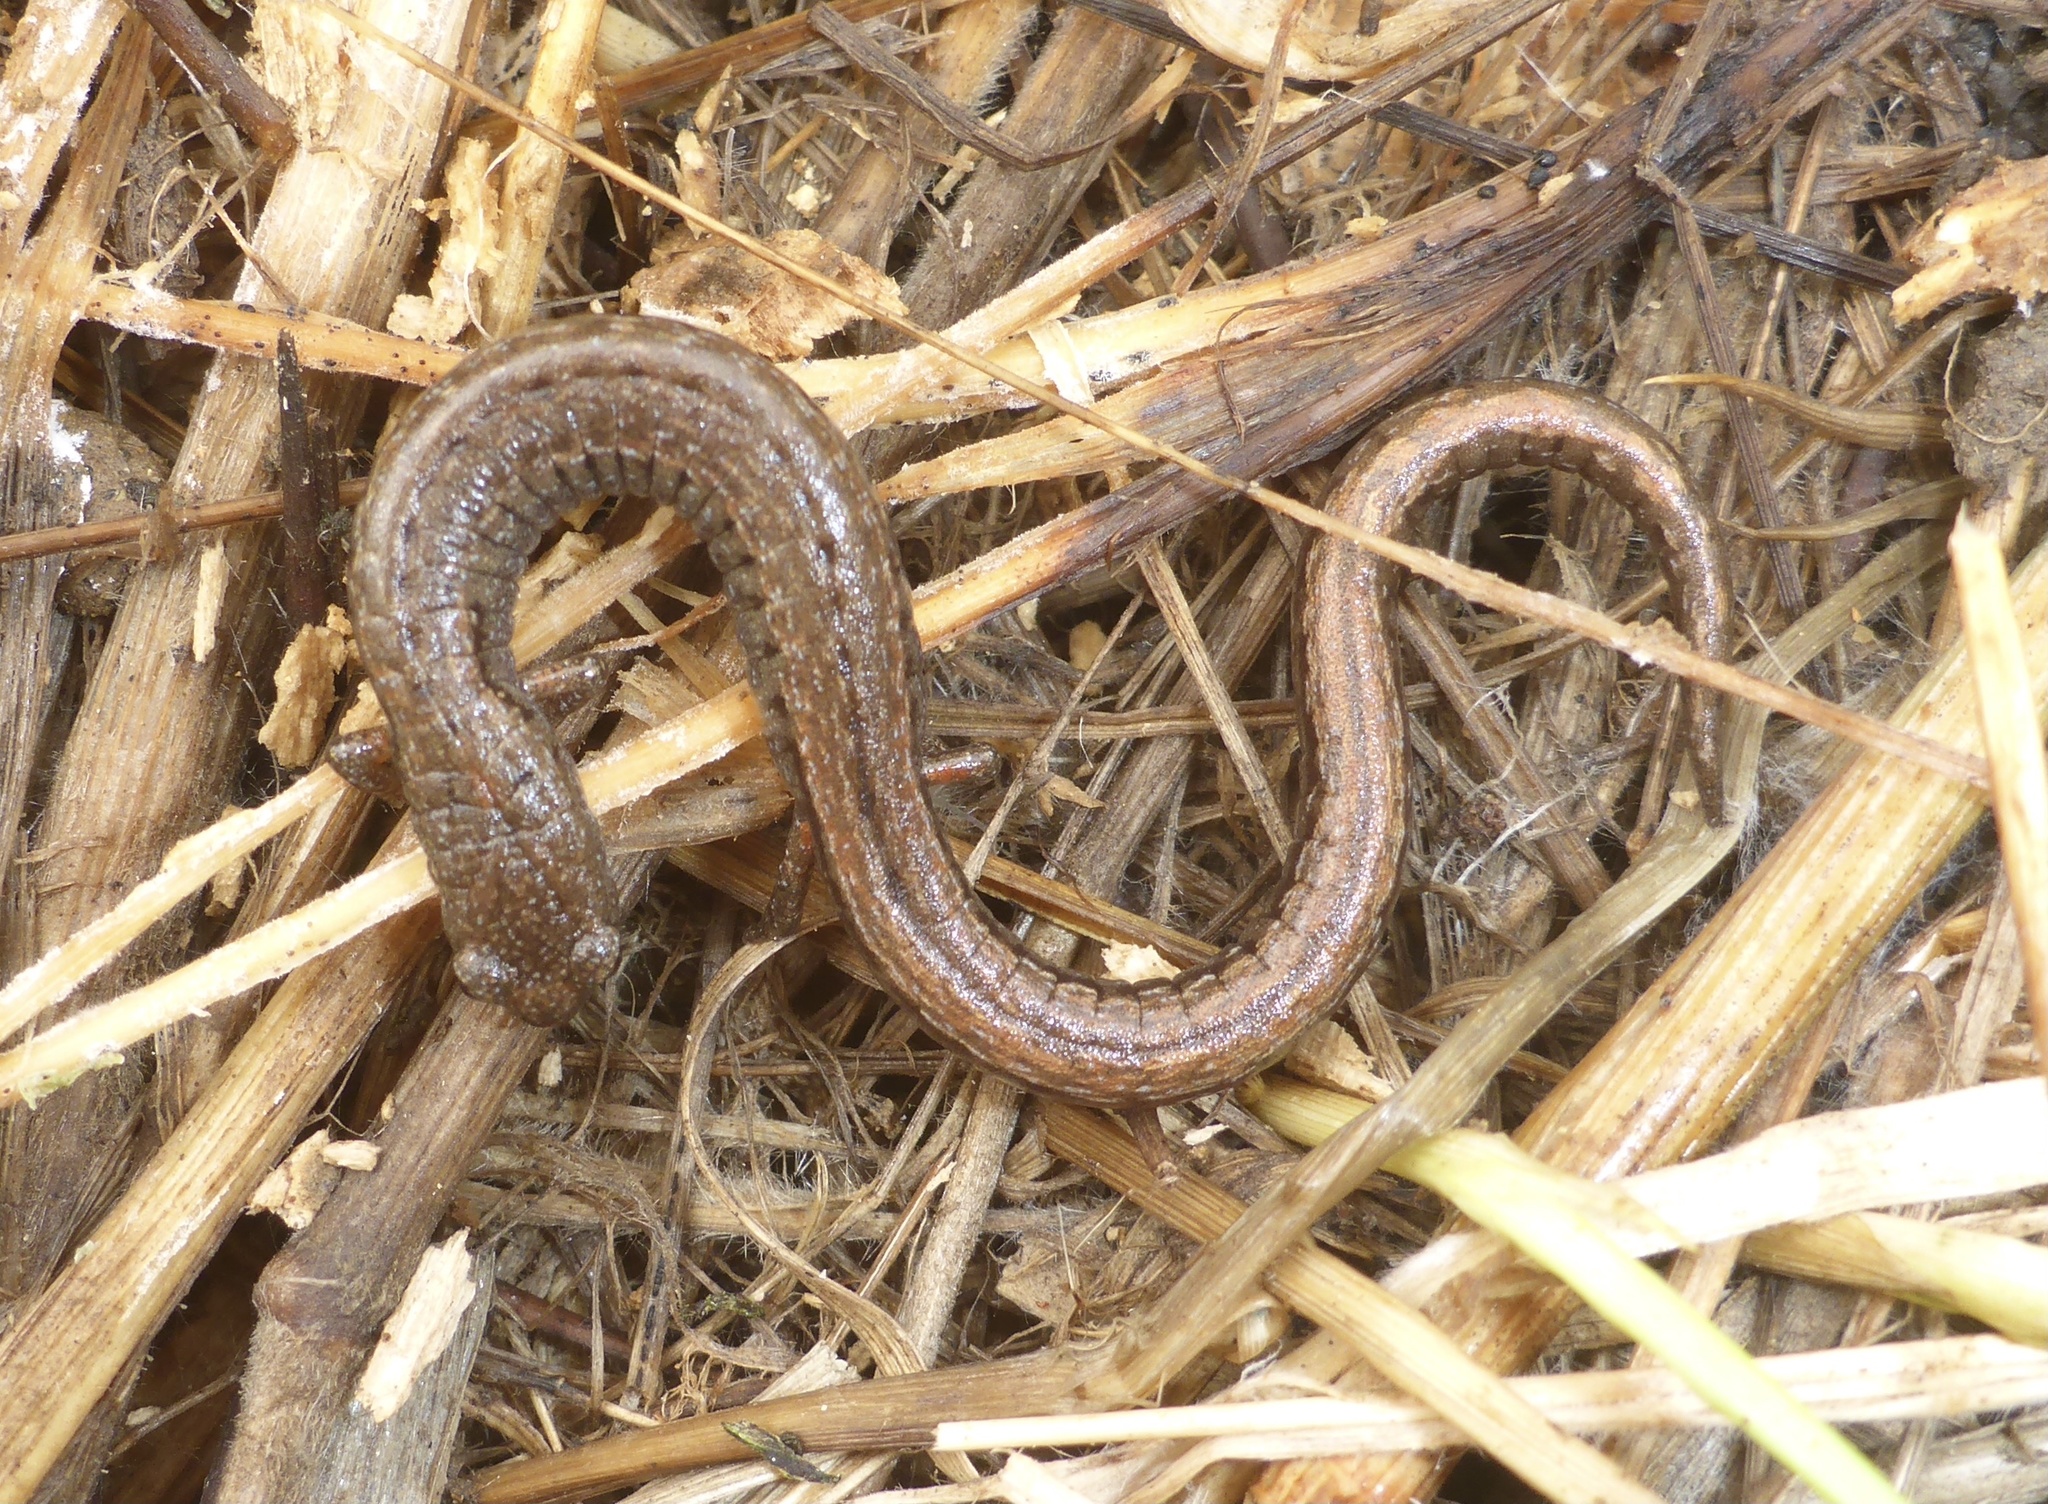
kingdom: Animalia
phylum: Chordata
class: Amphibia
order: Caudata
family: Plethodontidae
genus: Batrachoseps
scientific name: Batrachoseps attenuatus
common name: California slender salamander
